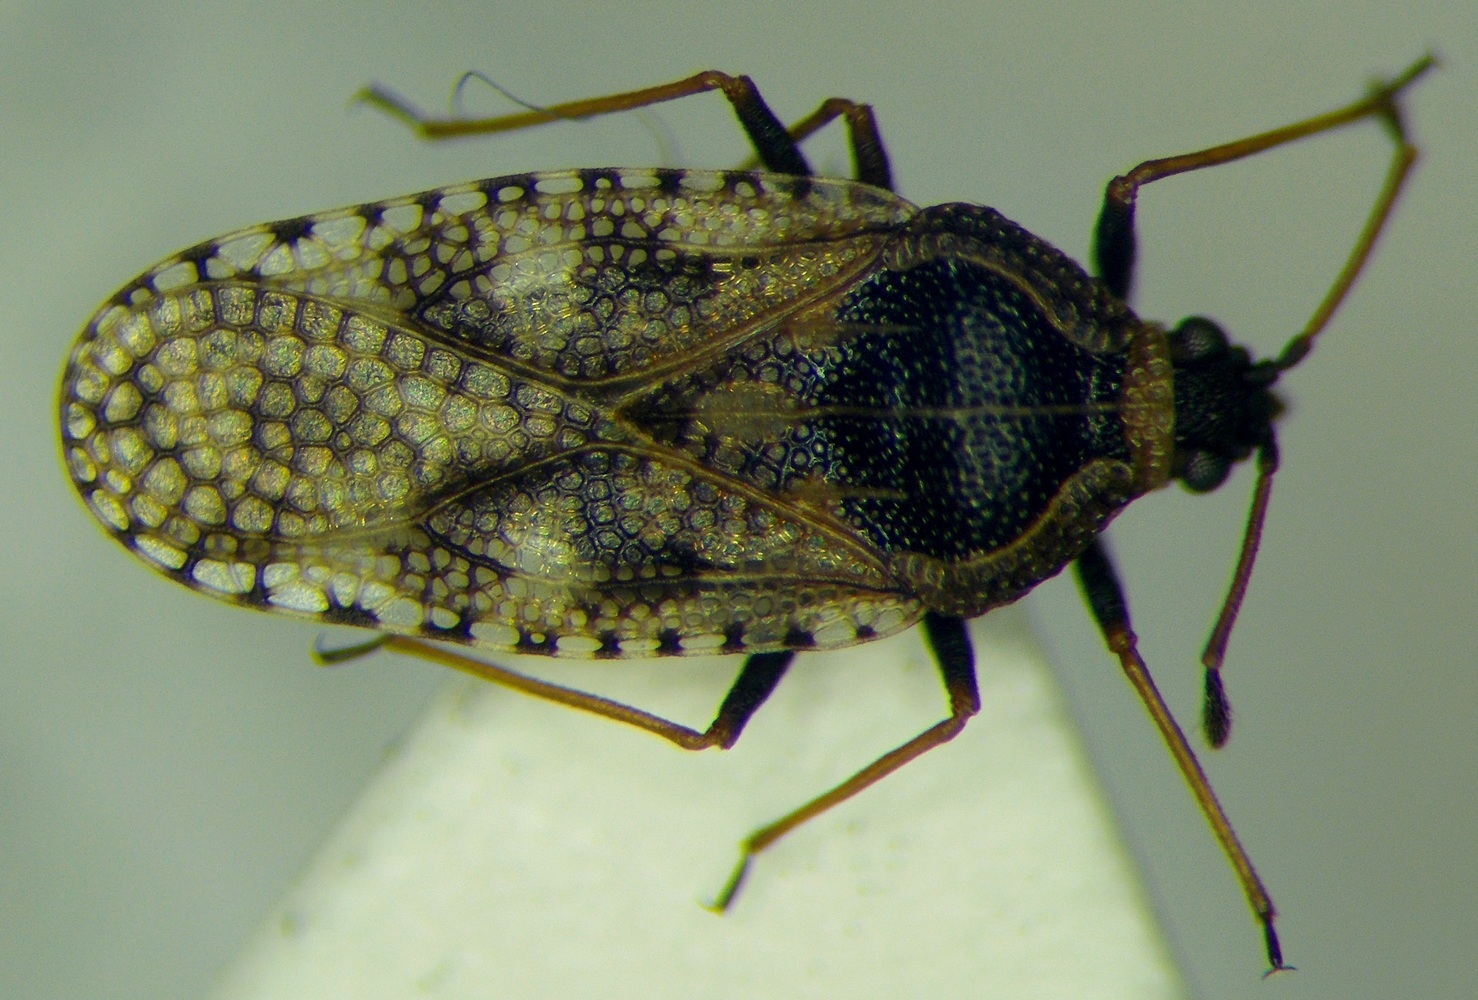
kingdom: Animalia
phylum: Arthropoda
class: Insecta
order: Hemiptera
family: Tingidae
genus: Dictyla
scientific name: Dictyla platyoma
